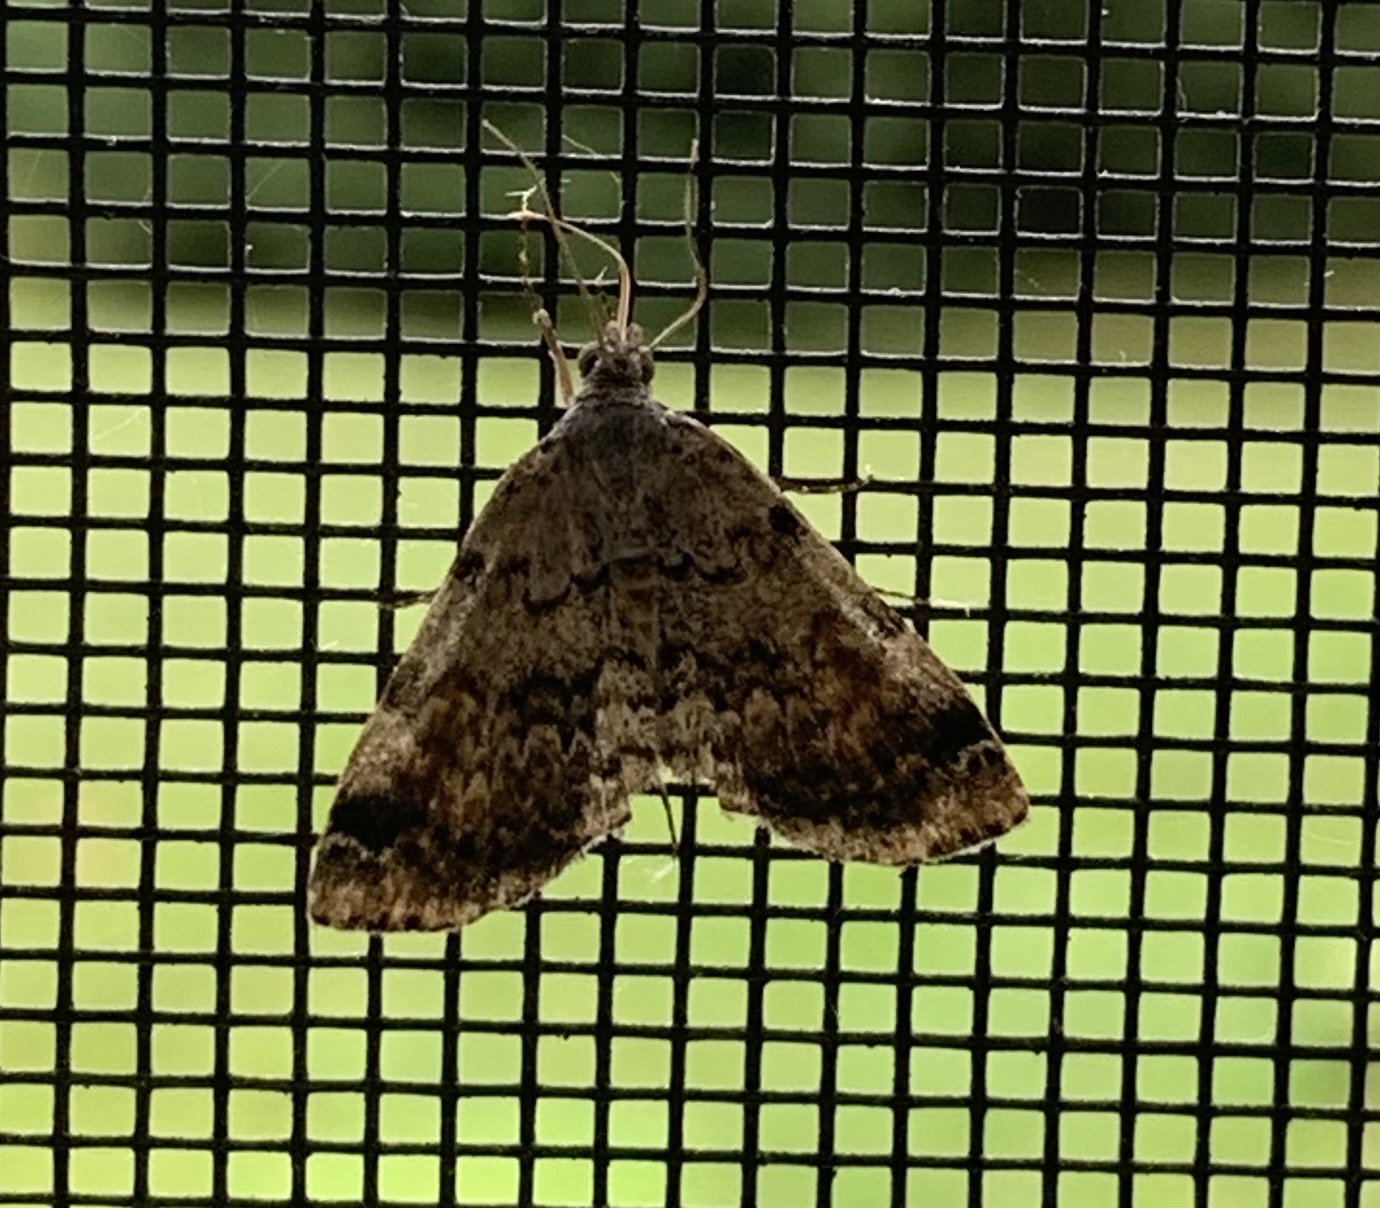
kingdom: Animalia
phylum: Arthropoda
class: Insecta
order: Lepidoptera
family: Erebidae
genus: Idia
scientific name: Idia americalis
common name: American idia moth
